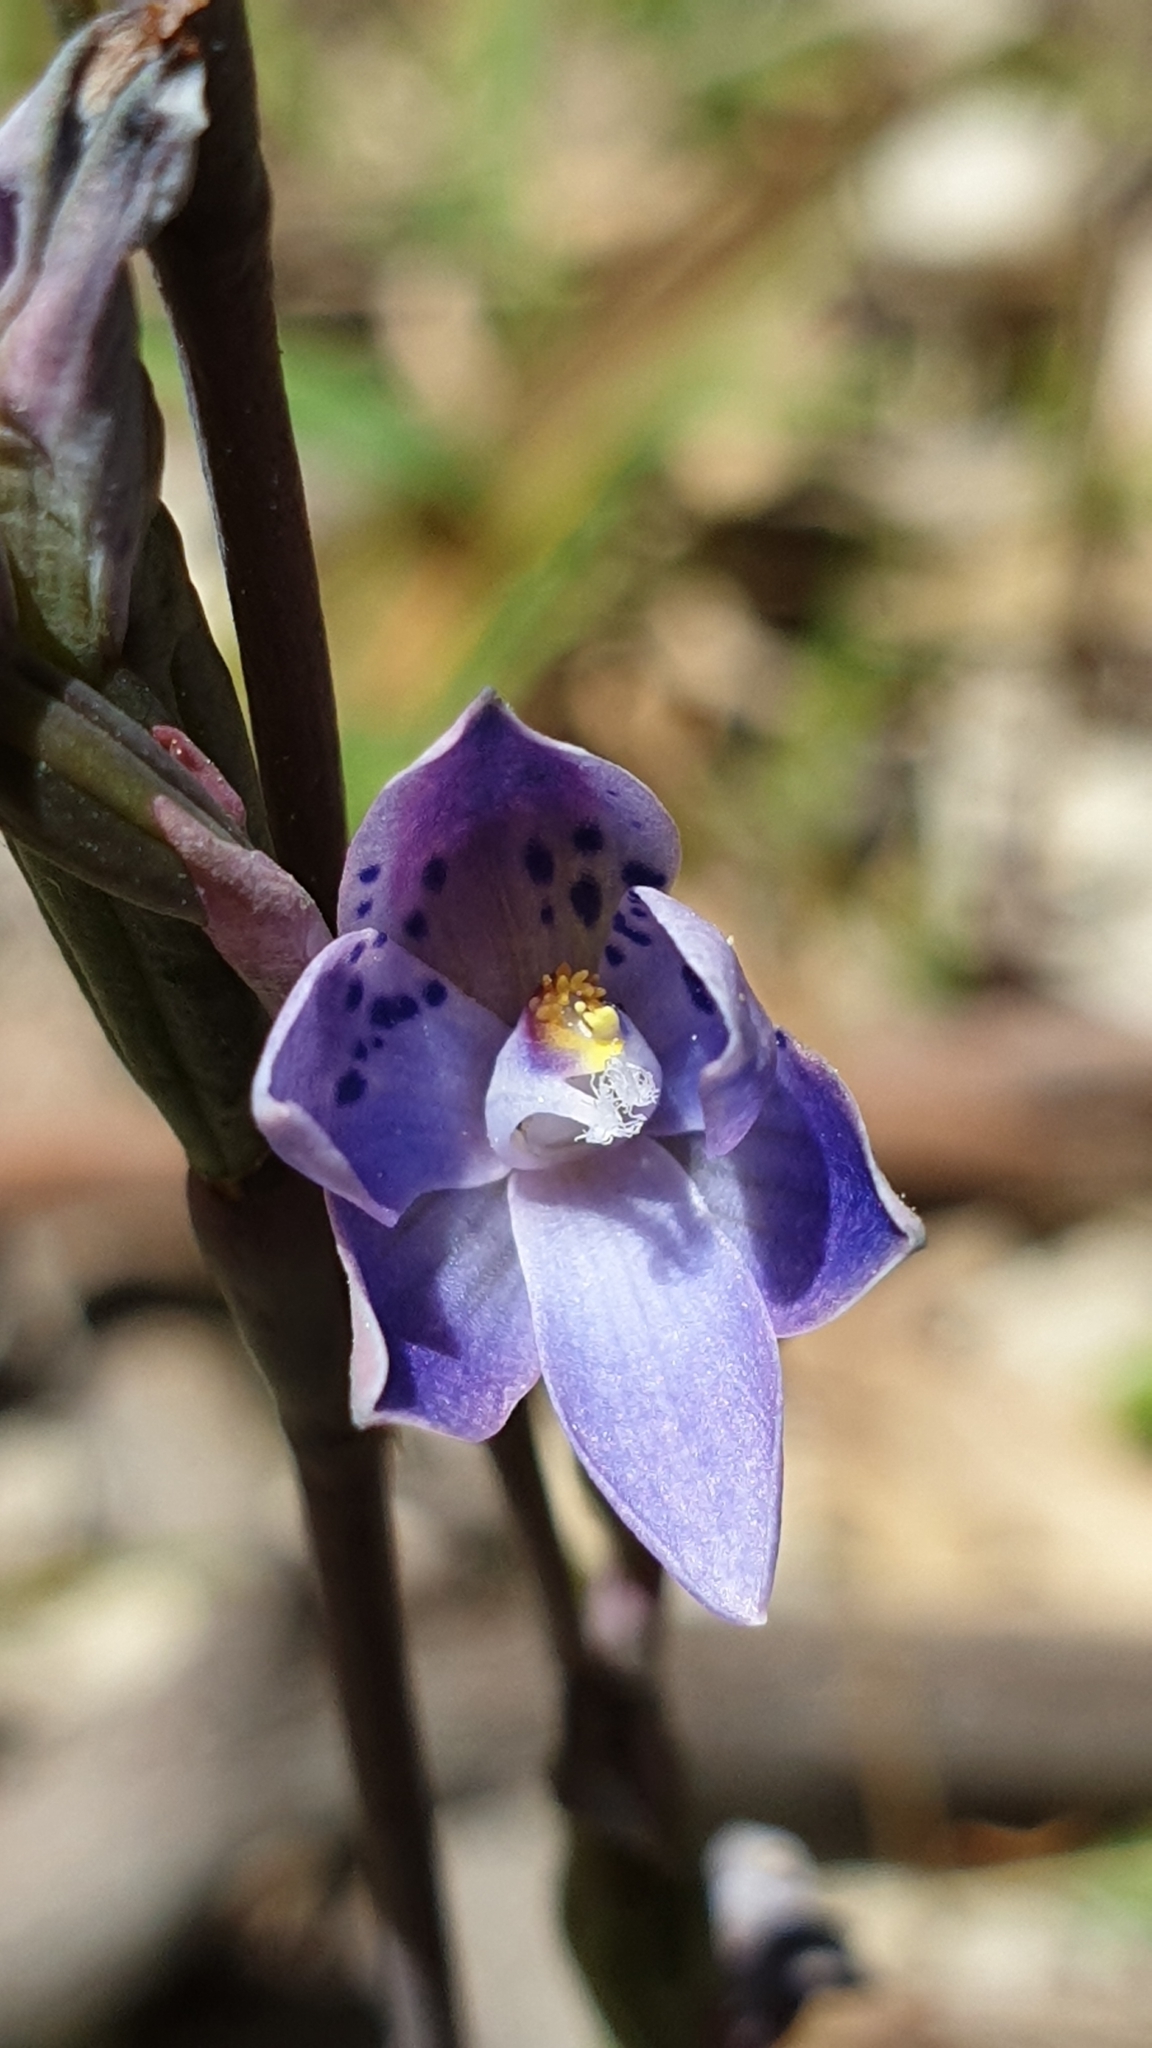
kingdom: Plantae
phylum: Tracheophyta
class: Liliopsida
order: Asparagales
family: Orchidaceae
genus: Thelymitra
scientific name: Thelymitra juncifolia
